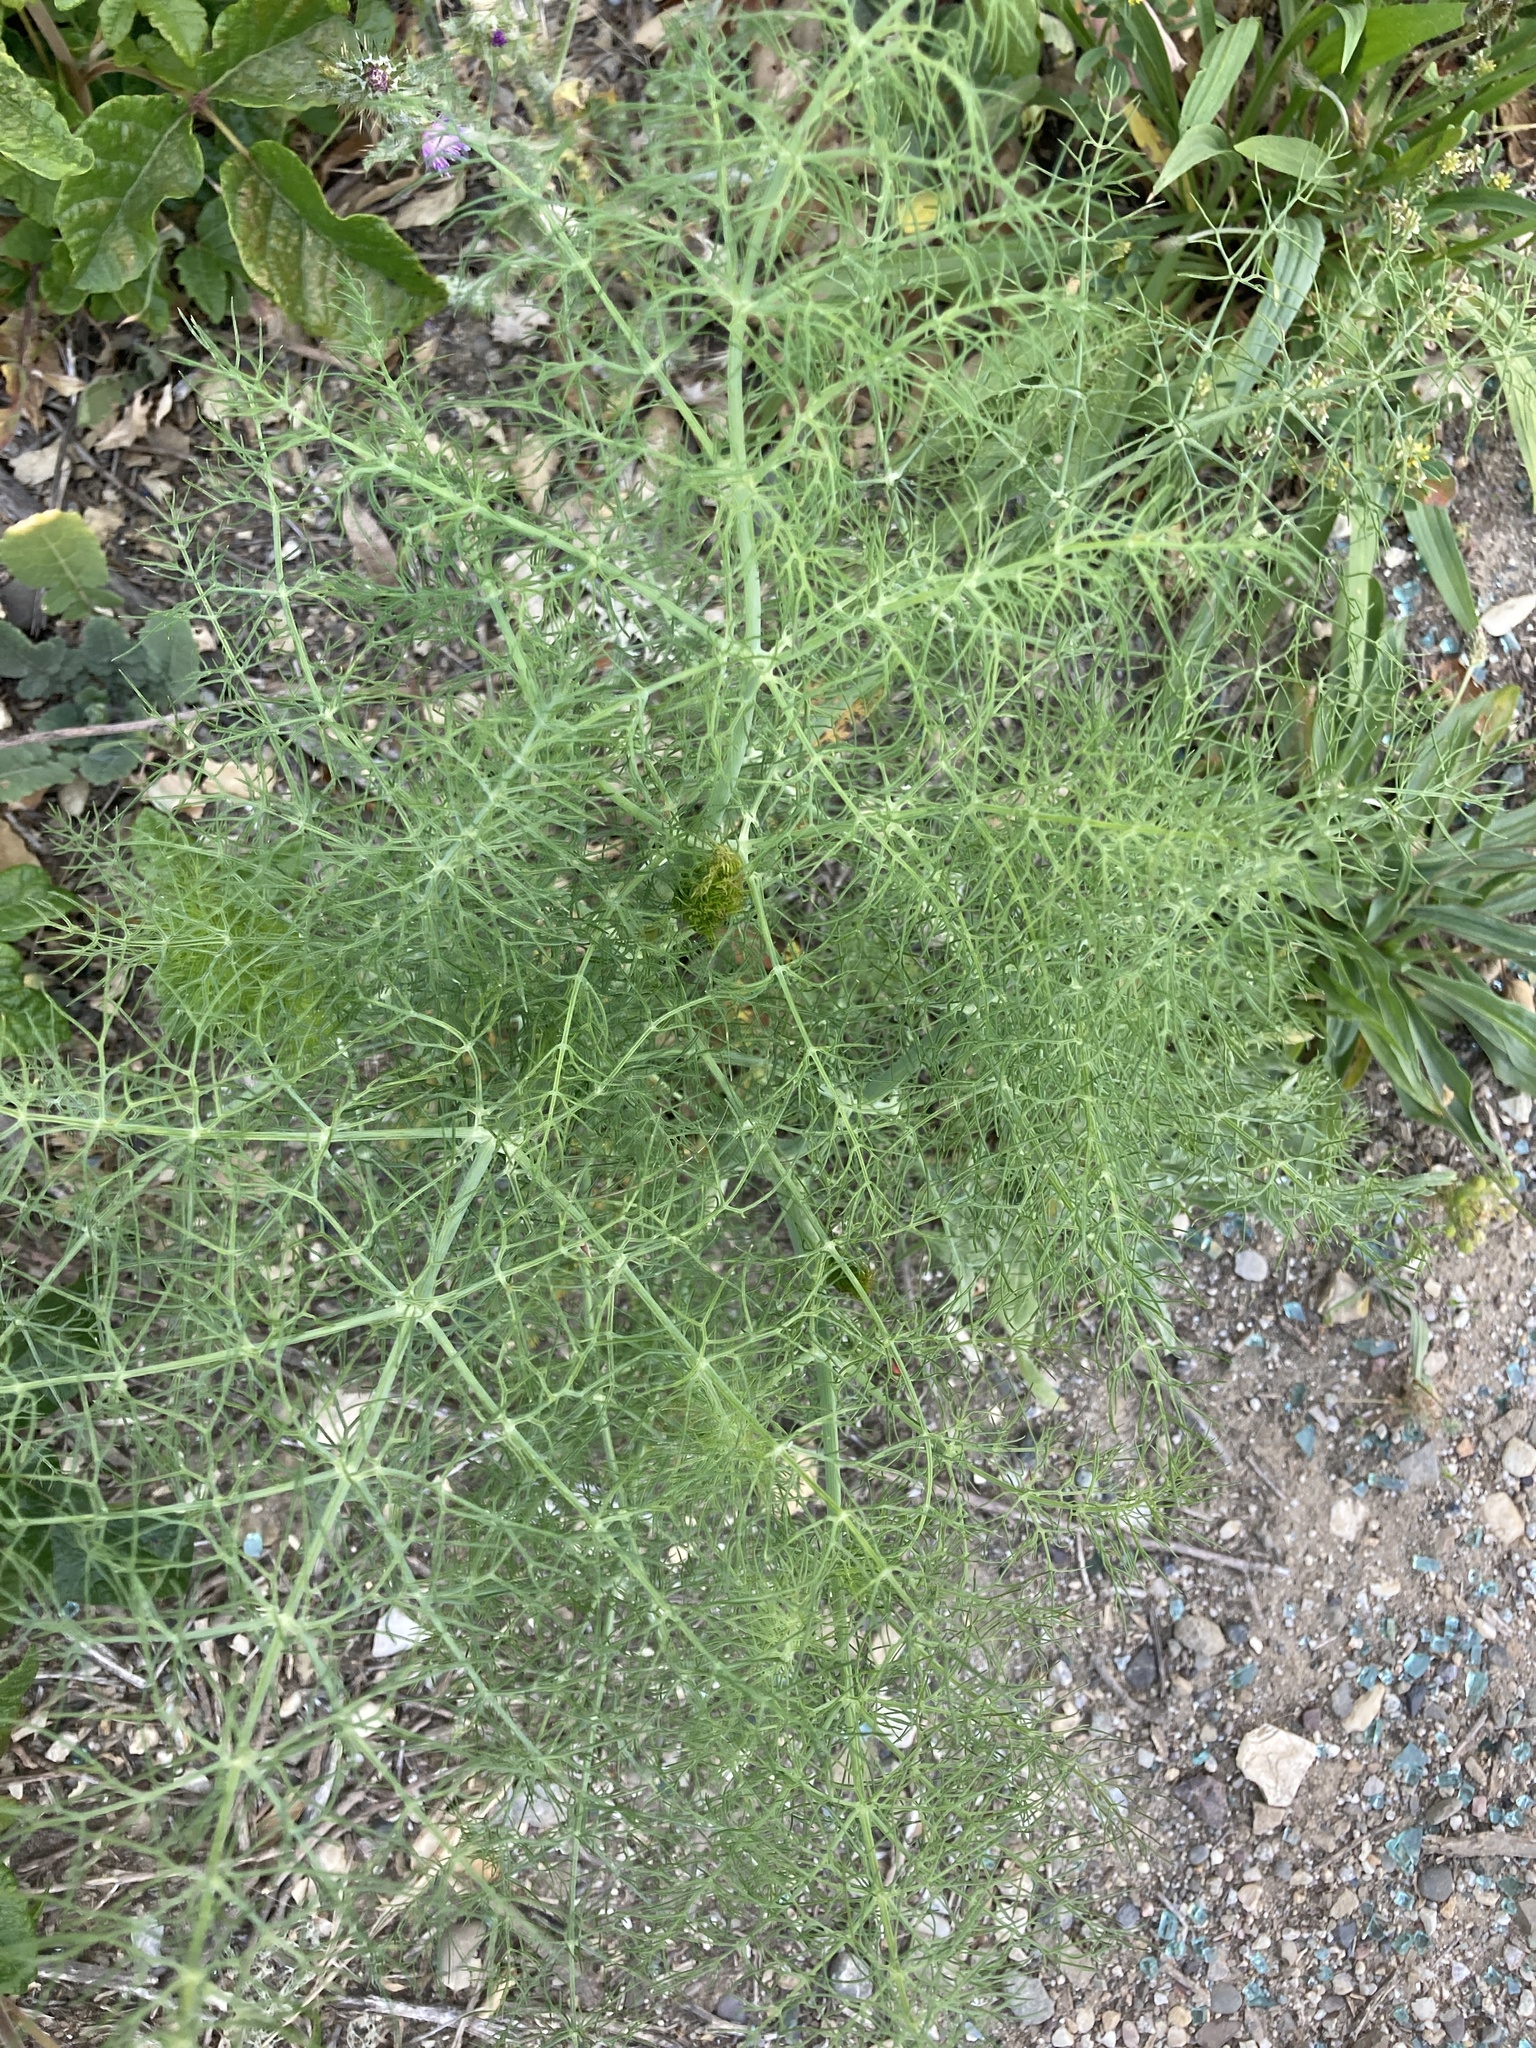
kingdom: Plantae
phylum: Tracheophyta
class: Magnoliopsida
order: Apiales
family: Apiaceae
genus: Foeniculum
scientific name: Foeniculum vulgare
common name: Fennel
